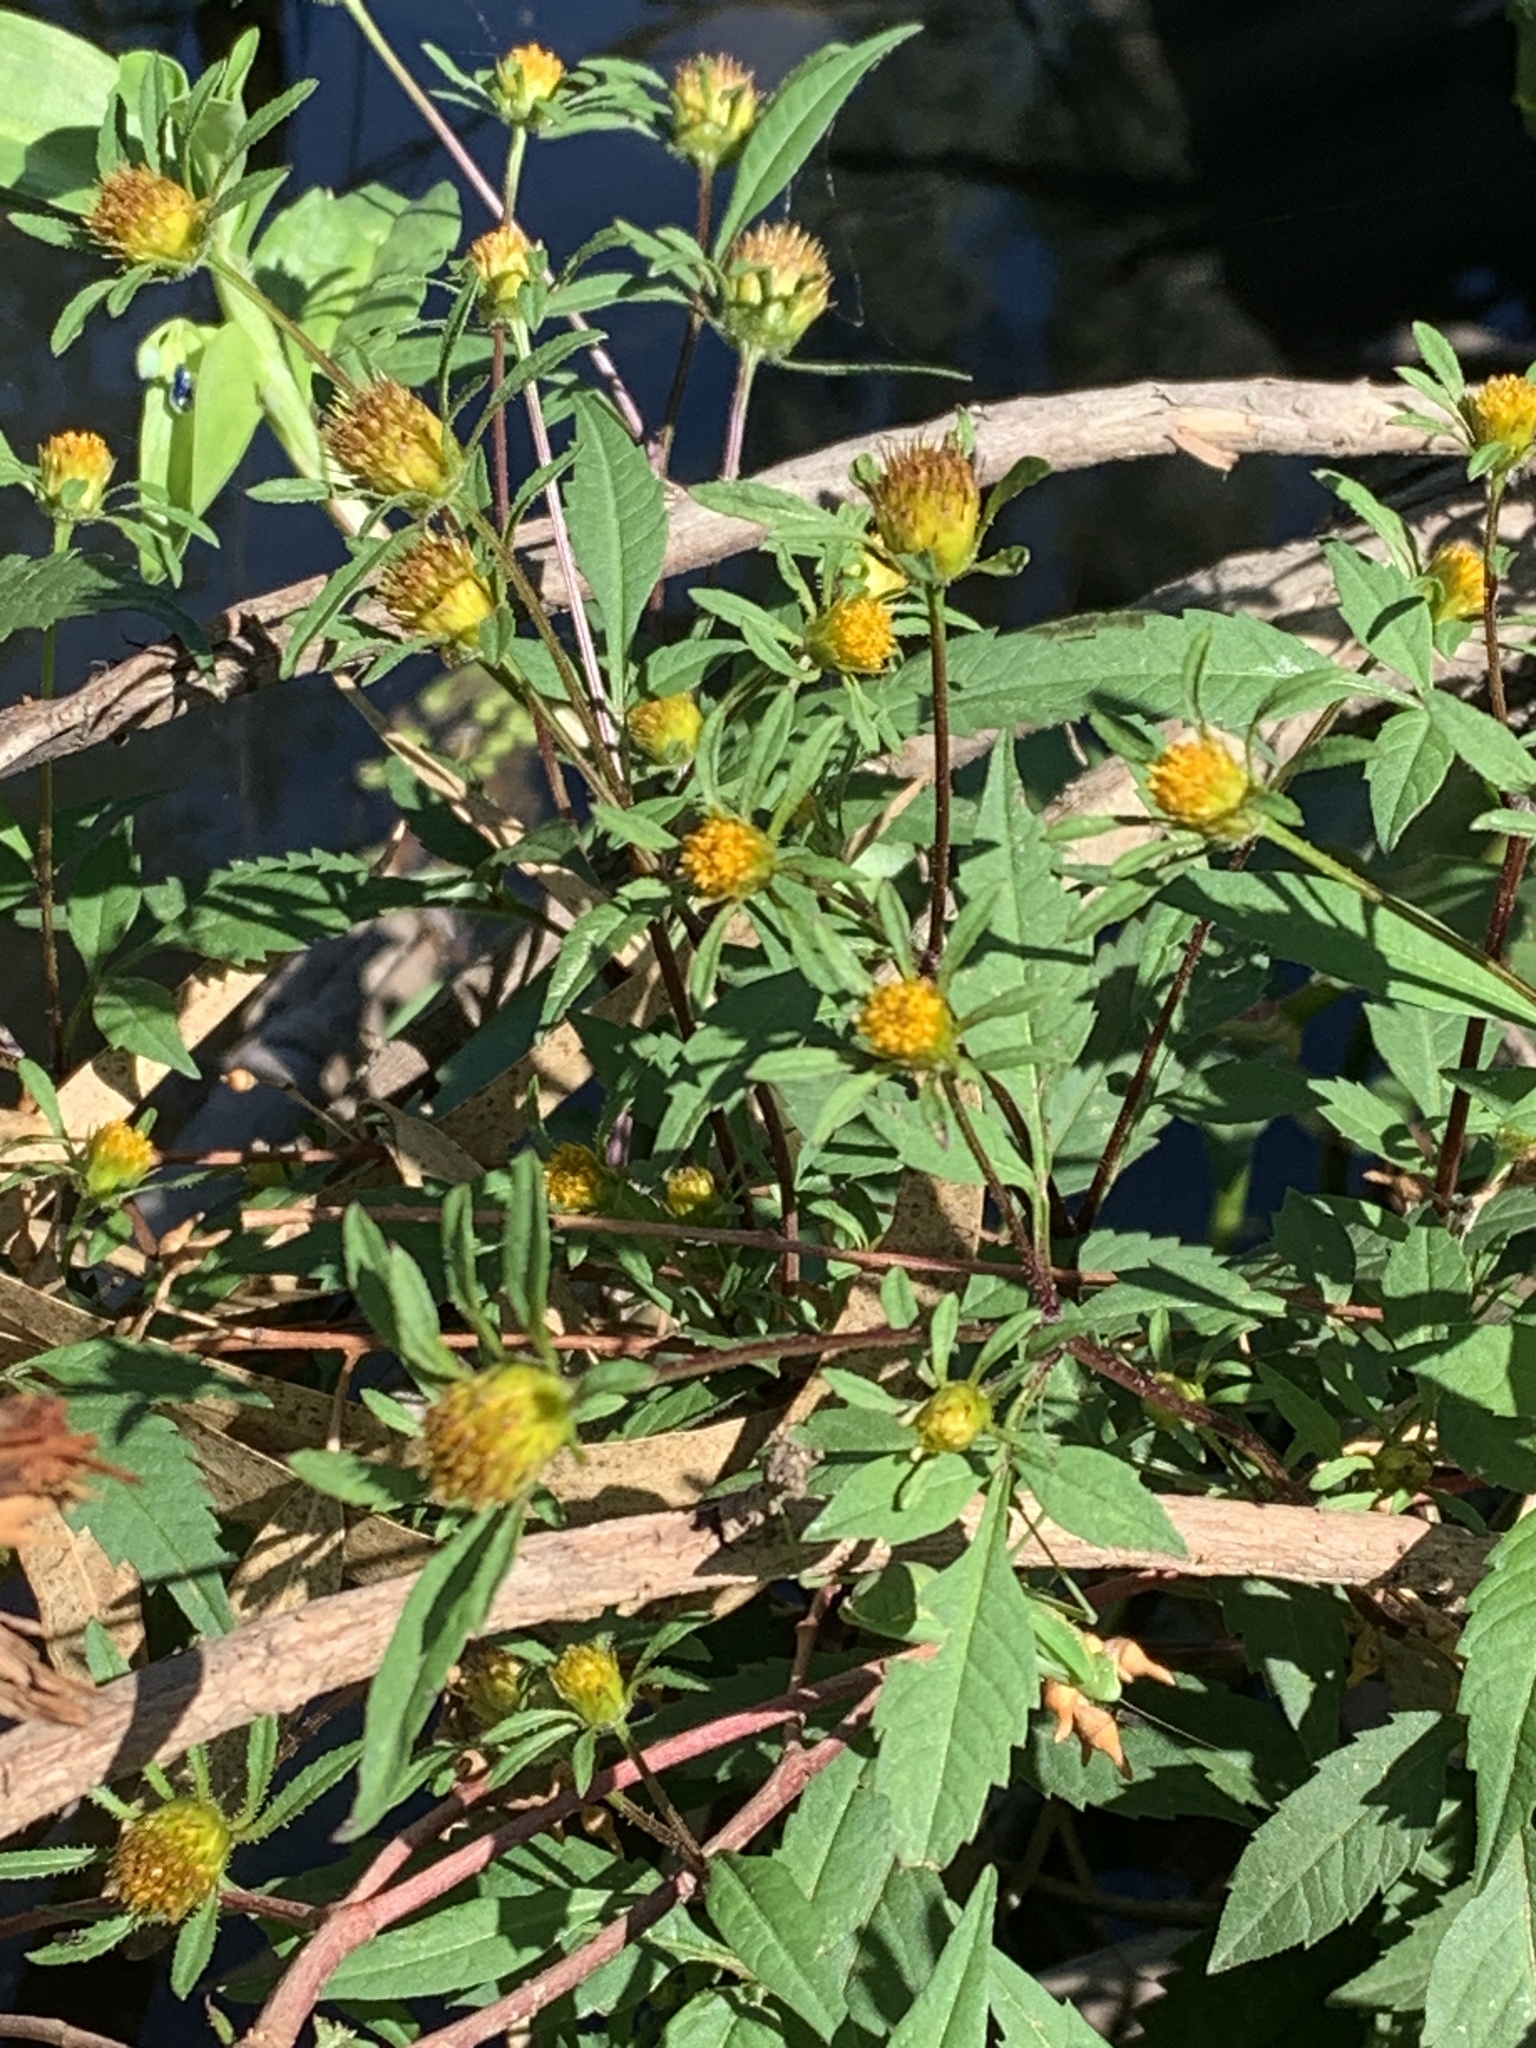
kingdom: Plantae
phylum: Tracheophyta
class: Magnoliopsida
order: Asterales
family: Asteraceae
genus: Bidens
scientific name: Bidens frondosa
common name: Beggarticks
